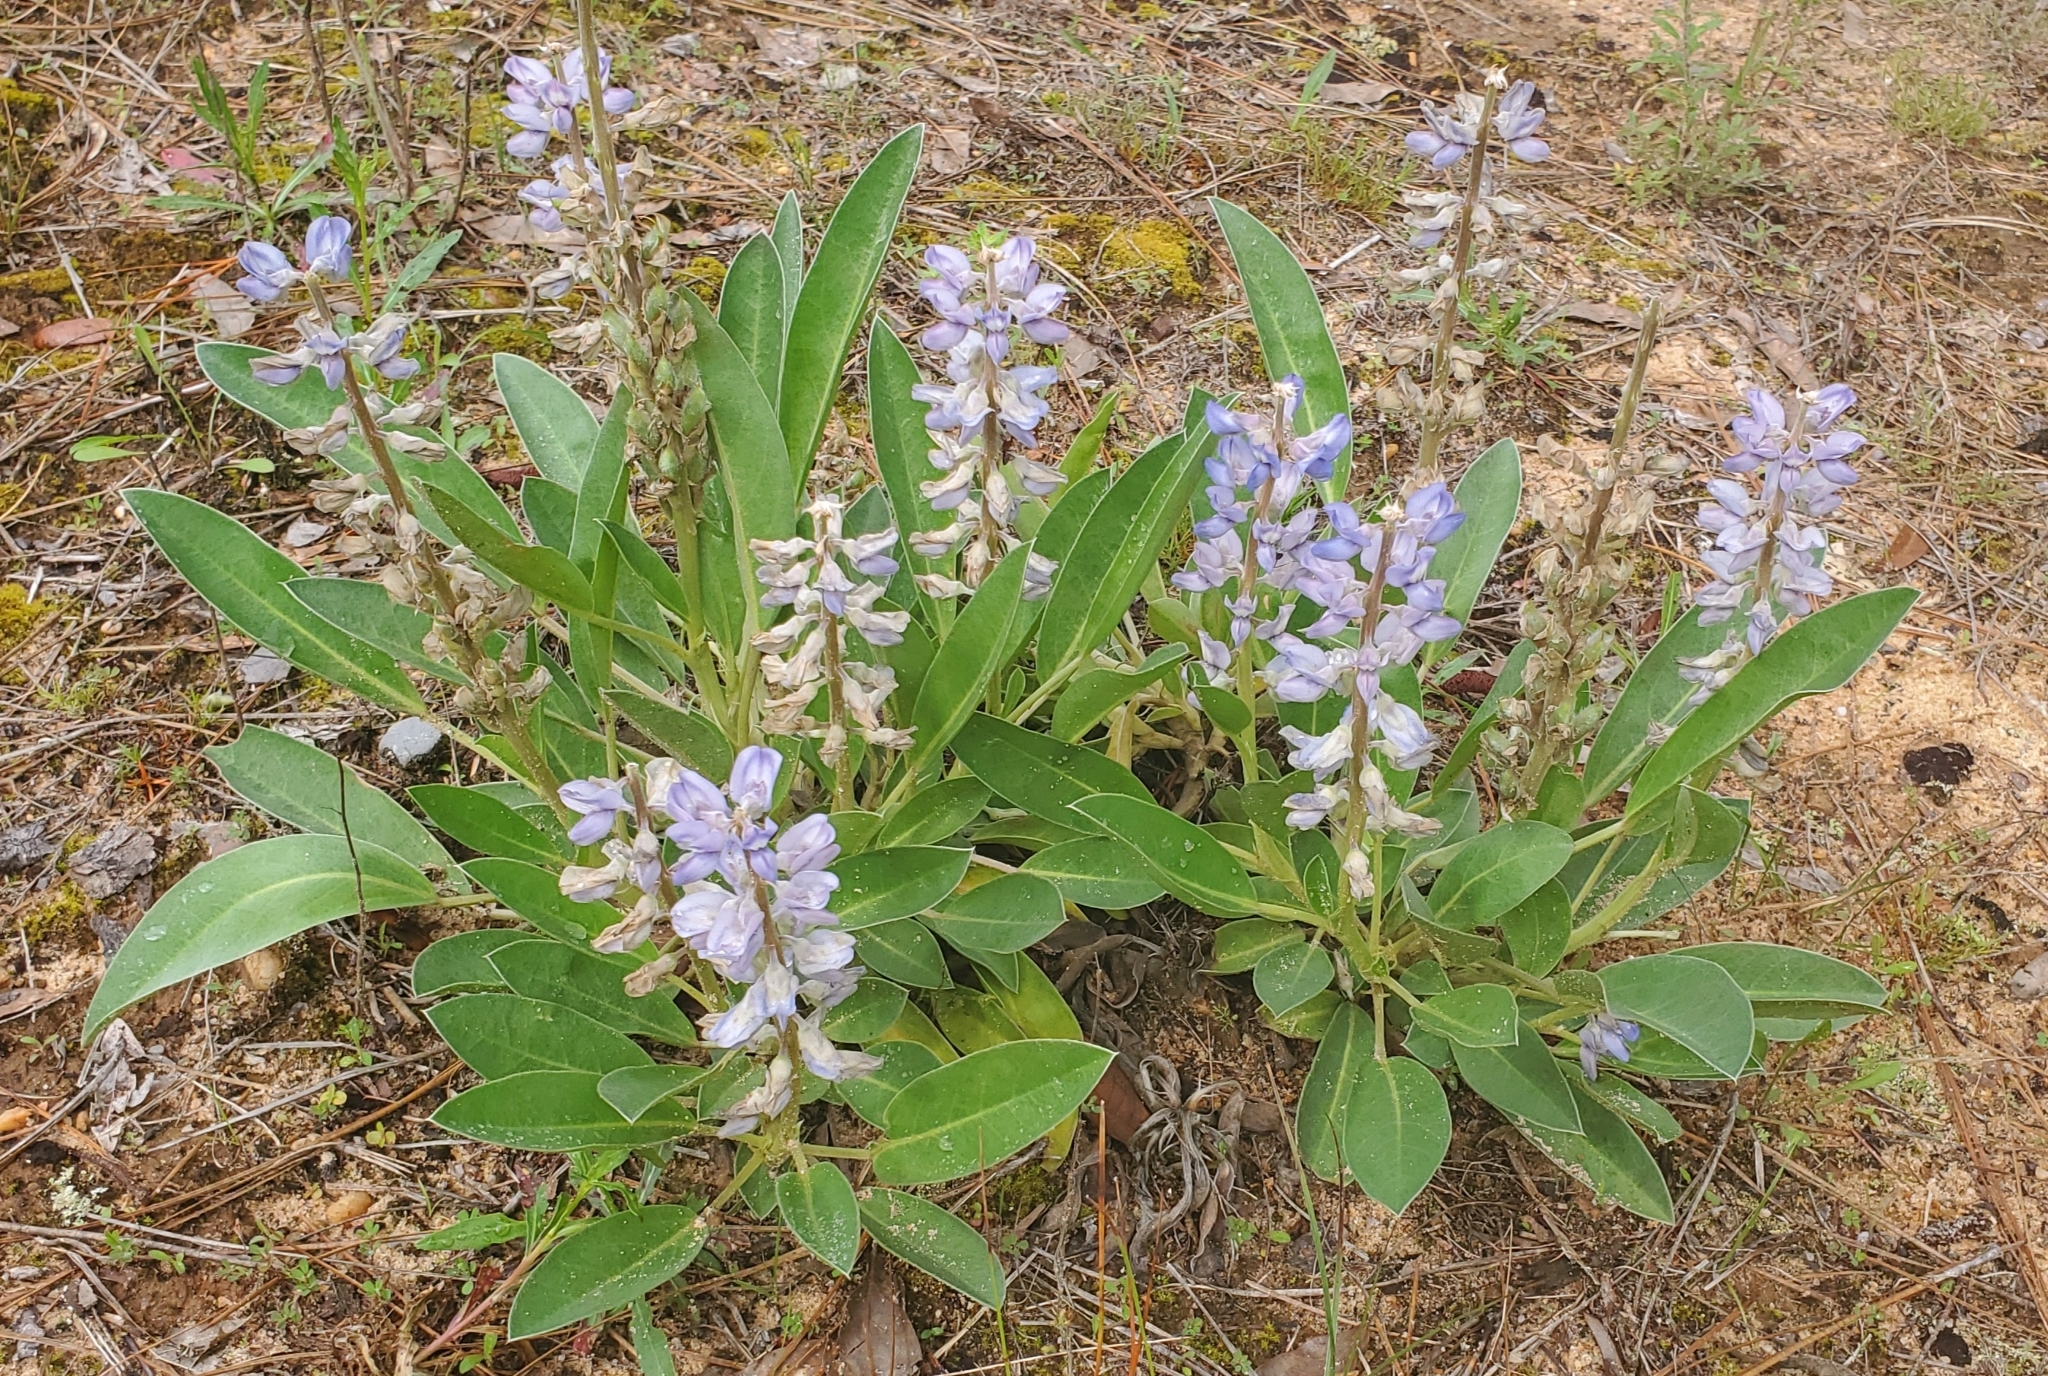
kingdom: Plantae
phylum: Tracheophyta
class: Magnoliopsida
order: Fabales
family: Fabaceae
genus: Lupinus
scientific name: Lupinus diffusus
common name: Oak ridge lupine
